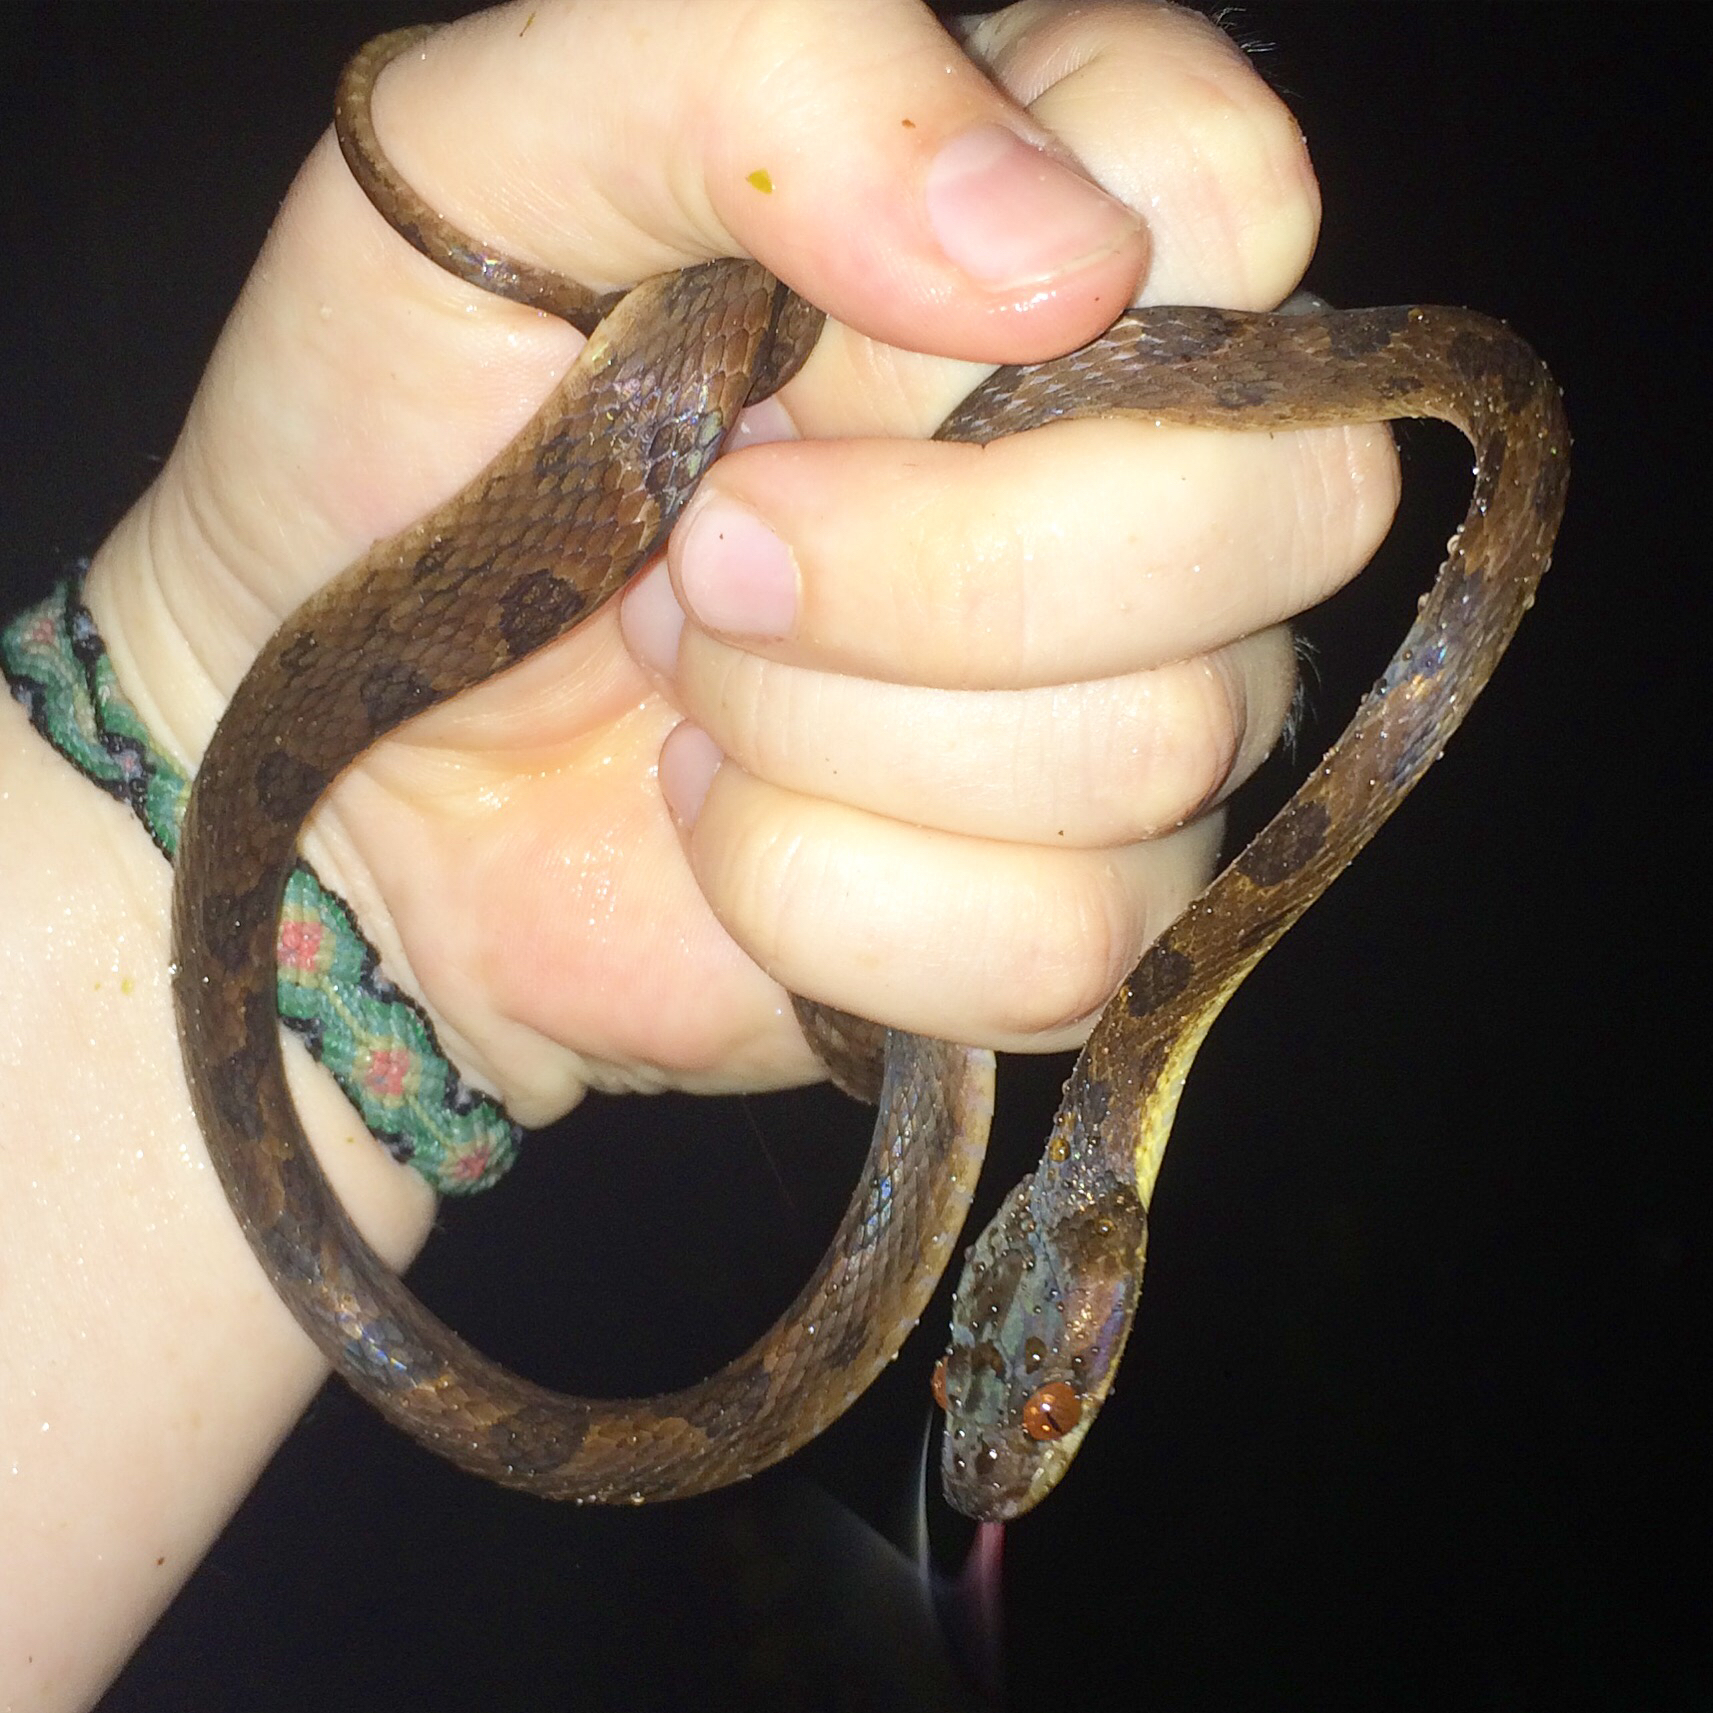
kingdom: Animalia
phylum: Chordata
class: Squamata
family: Colubridae
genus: Leptodeira
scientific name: Leptodeira ornata
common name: Northern cat-eyed snake
